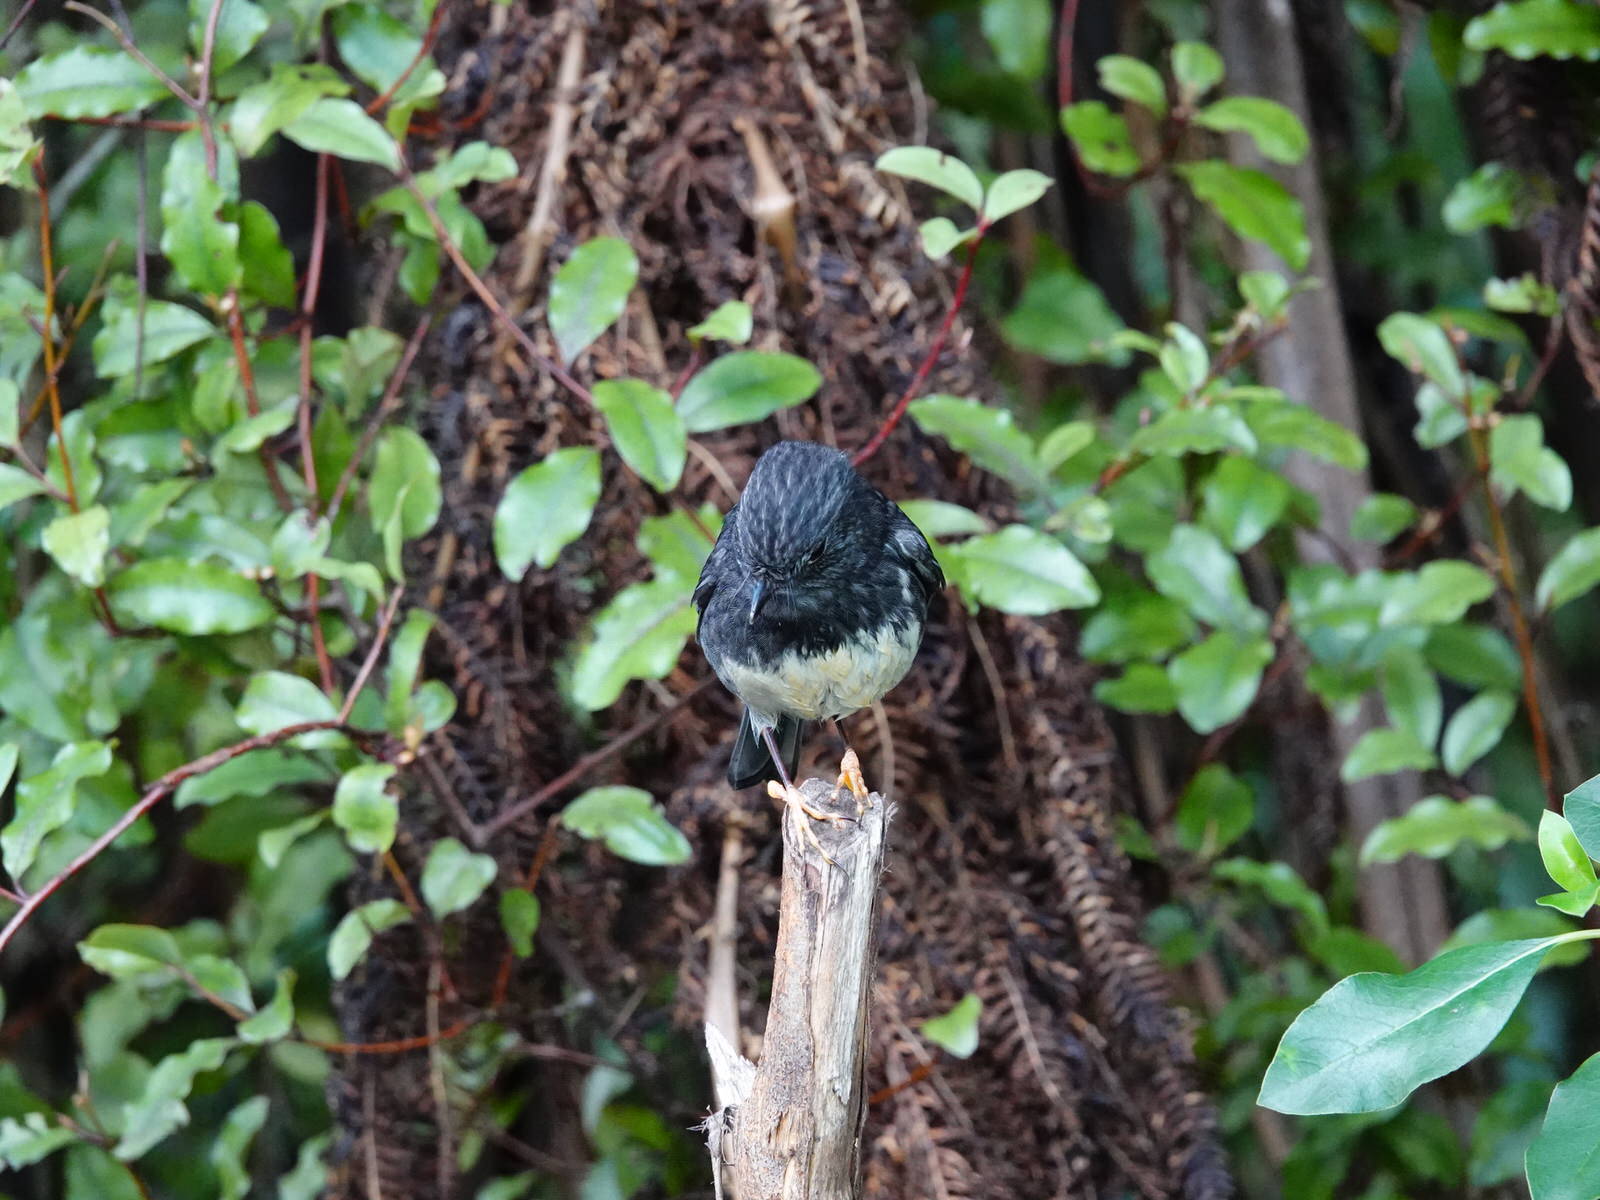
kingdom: Animalia
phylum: Chordata
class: Aves
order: Passeriformes
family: Petroicidae
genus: Petroica
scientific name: Petroica australis
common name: New zealand robin
